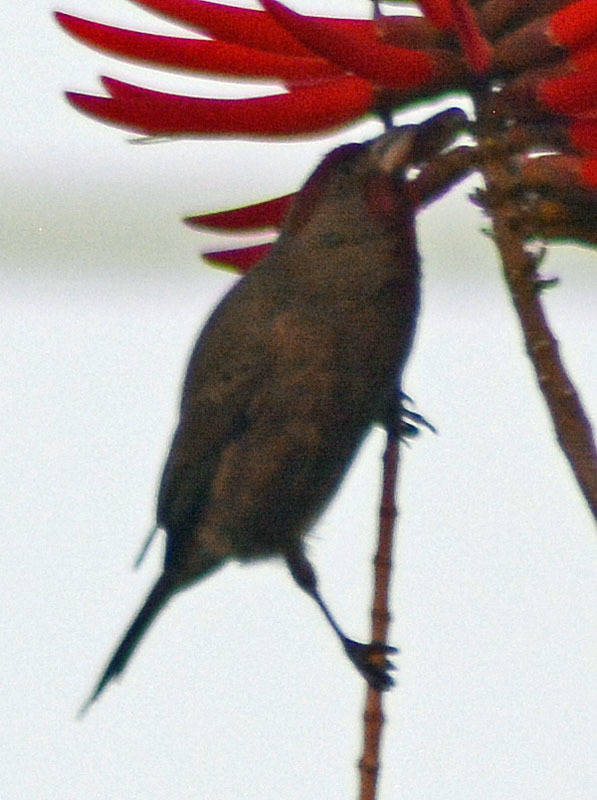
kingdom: Animalia
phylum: Chordata
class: Aves
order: Passeriformes
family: Fringillidae
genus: Haemorhous
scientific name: Haemorhous mexicanus
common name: House finch
